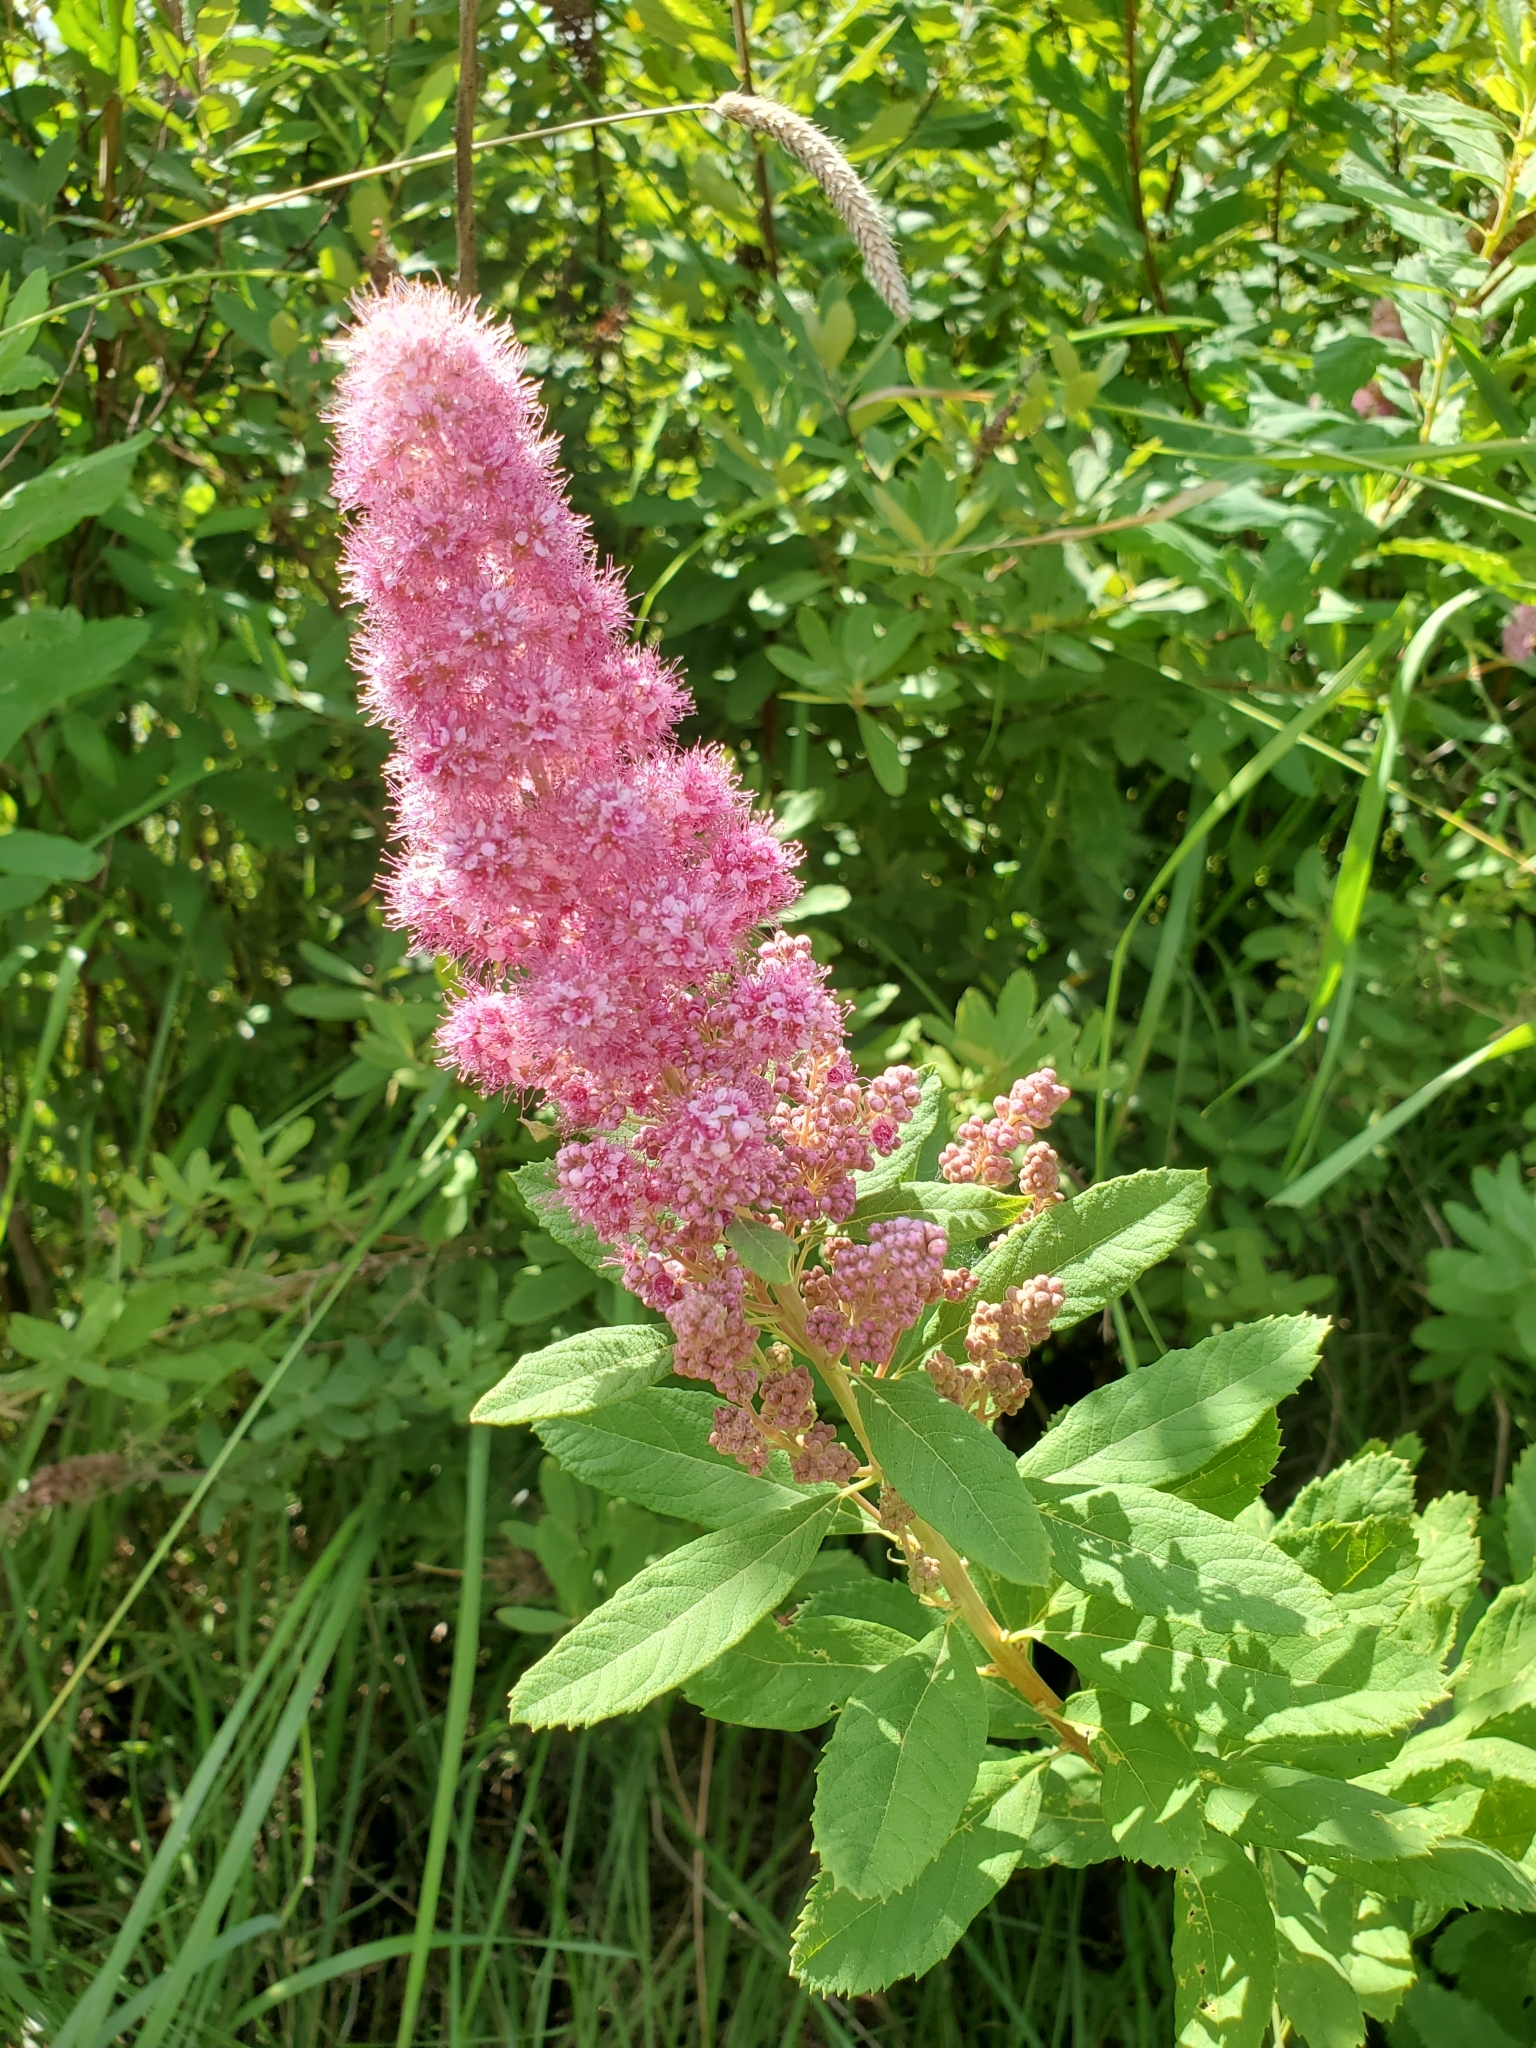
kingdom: Plantae
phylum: Tracheophyta
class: Magnoliopsida
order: Rosales
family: Rosaceae
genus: Spiraea
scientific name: Spiraea douglasii
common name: Steeplebush
